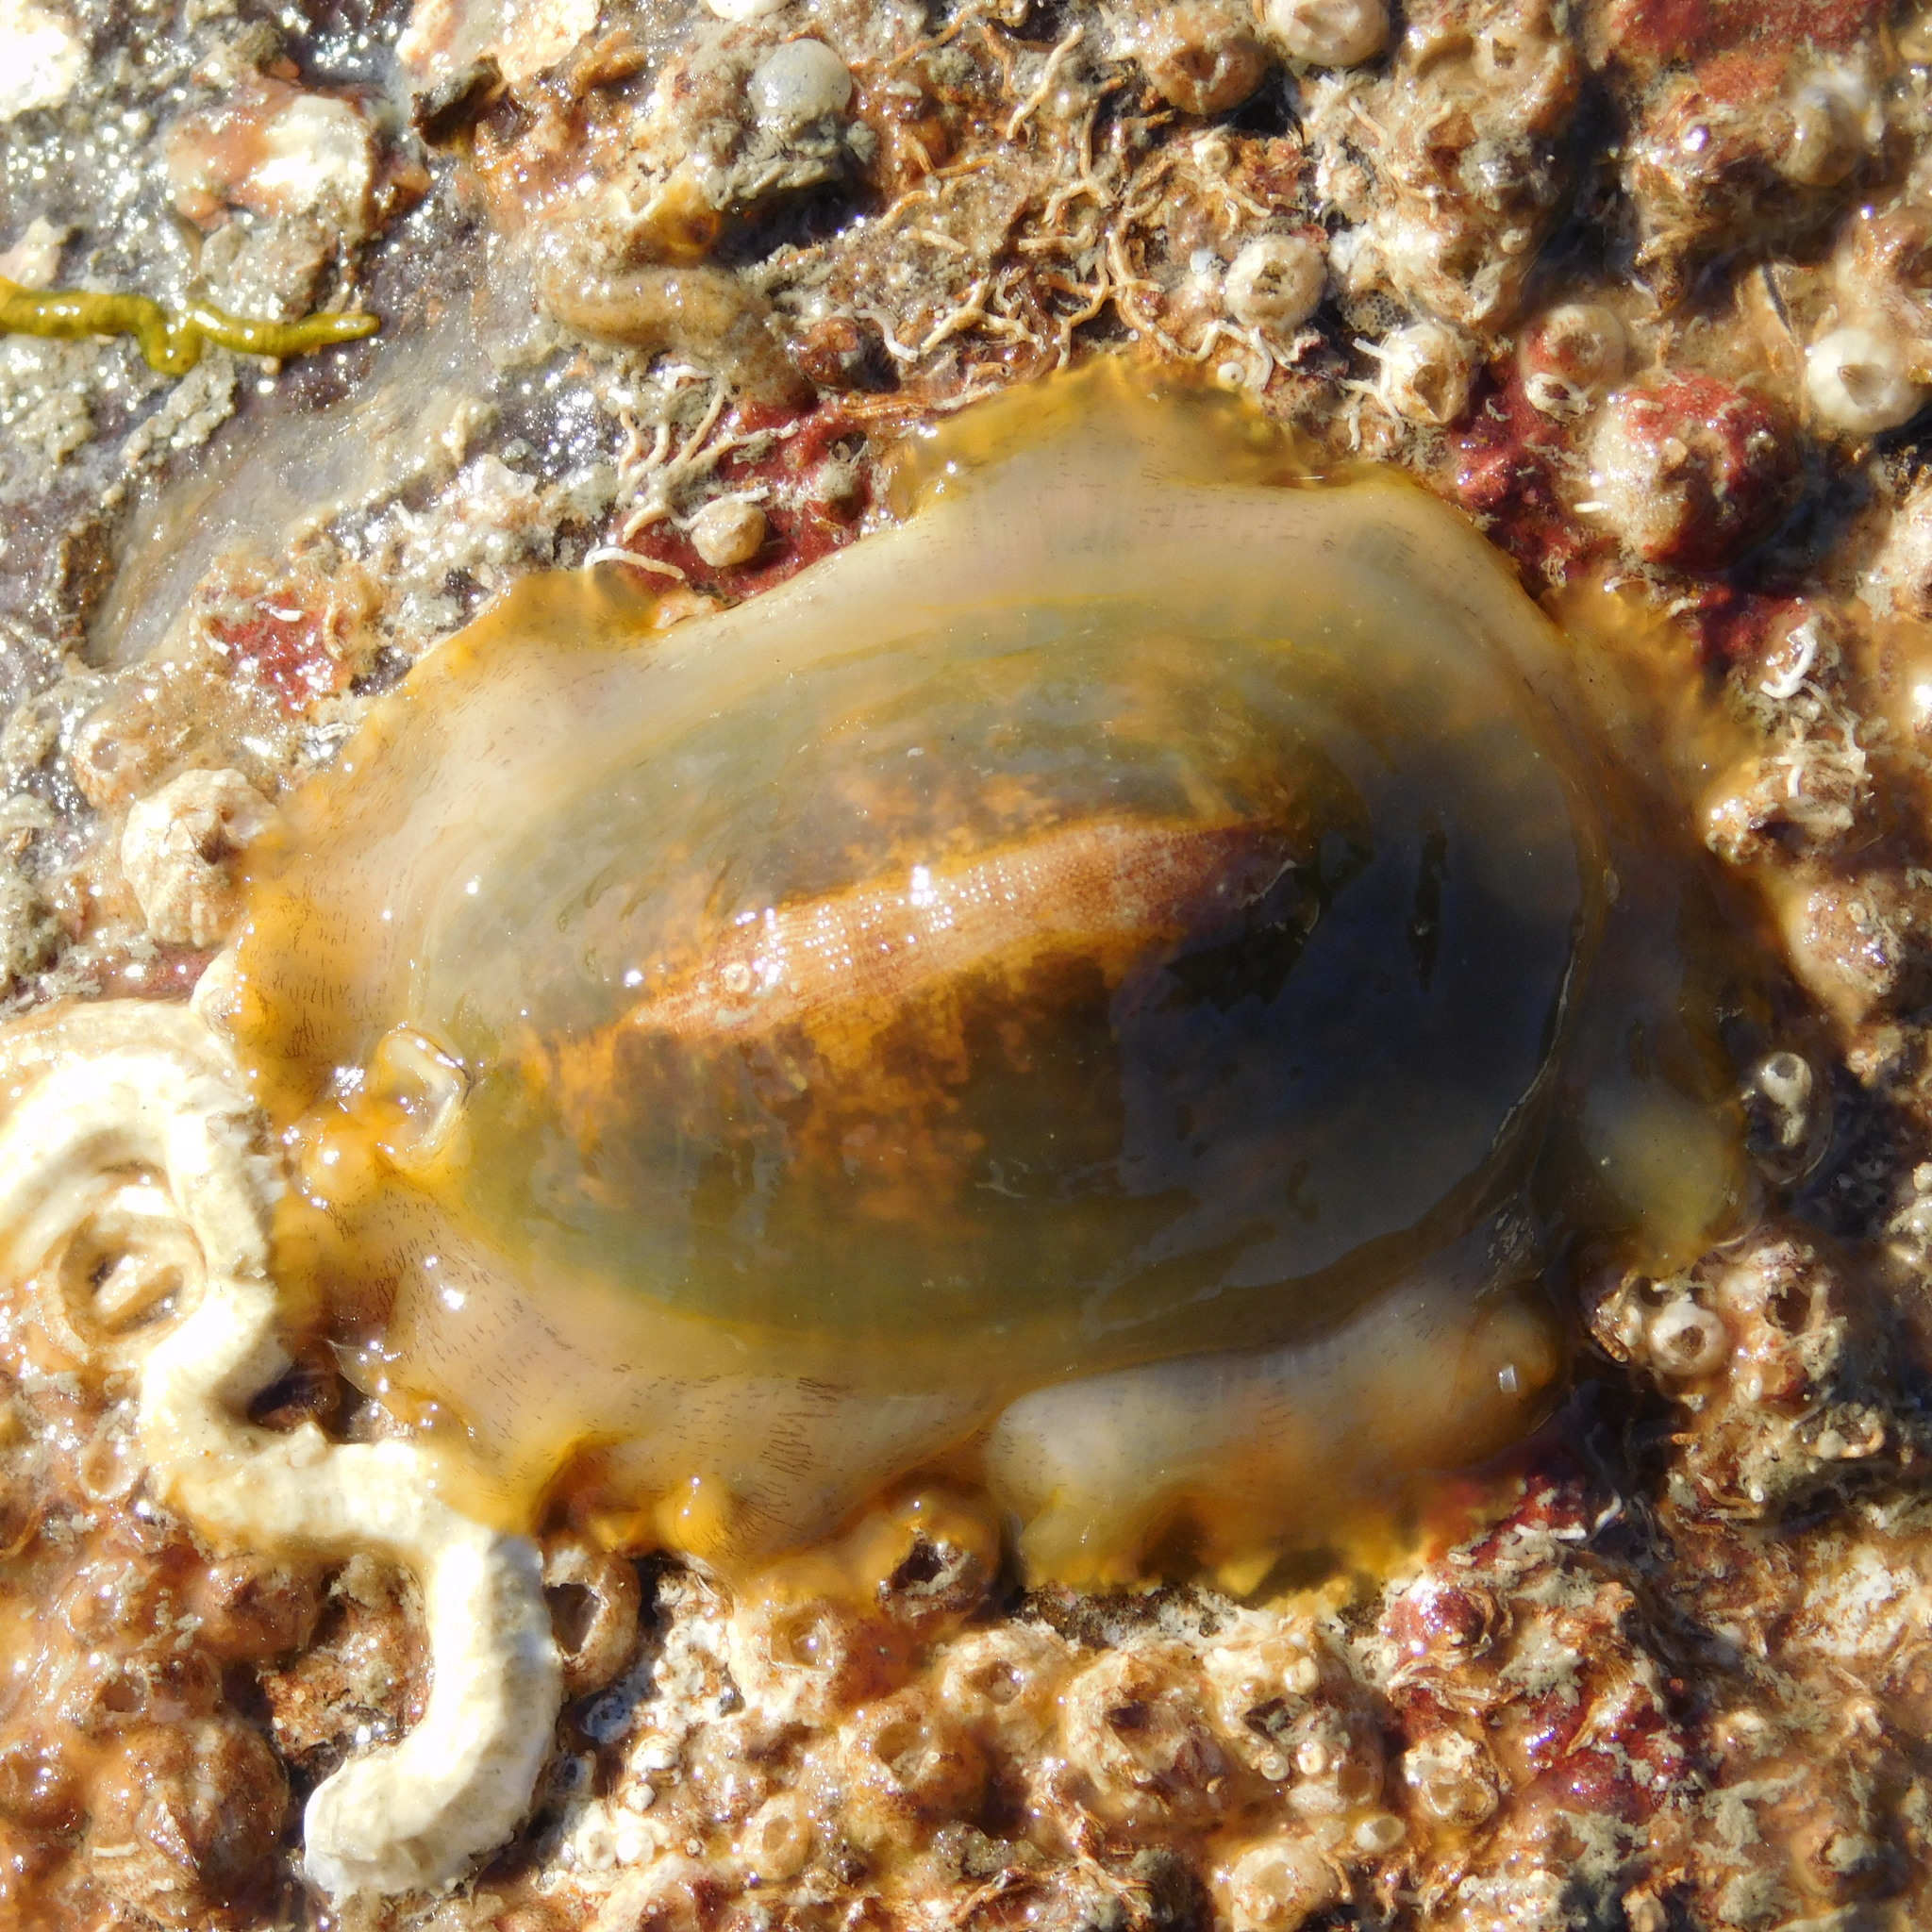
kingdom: Animalia
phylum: Mollusca
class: Gastropoda
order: Lepetellida
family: Fissurellidae
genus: Tugali
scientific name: Tugali elegans
